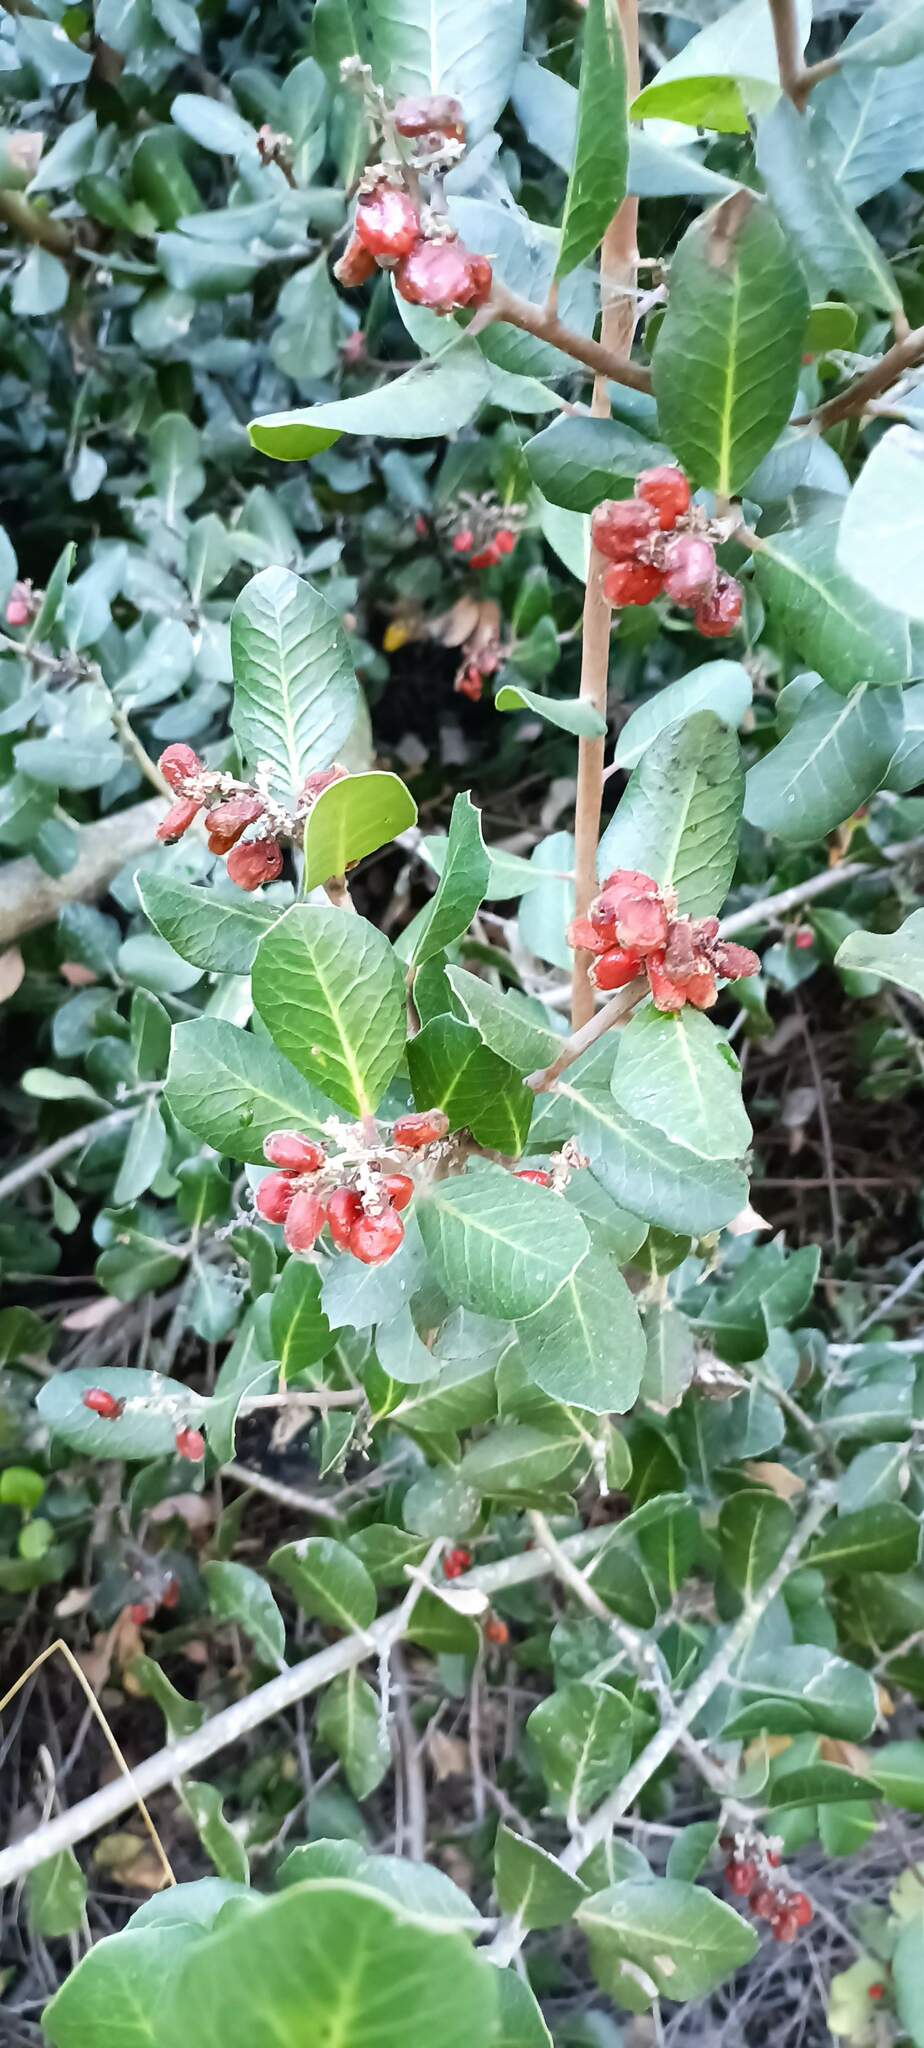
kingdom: Plantae
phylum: Tracheophyta
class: Magnoliopsida
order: Sapindales
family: Anacardiaceae
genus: Rhus
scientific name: Rhus integrifolia
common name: Lemonade sumac
